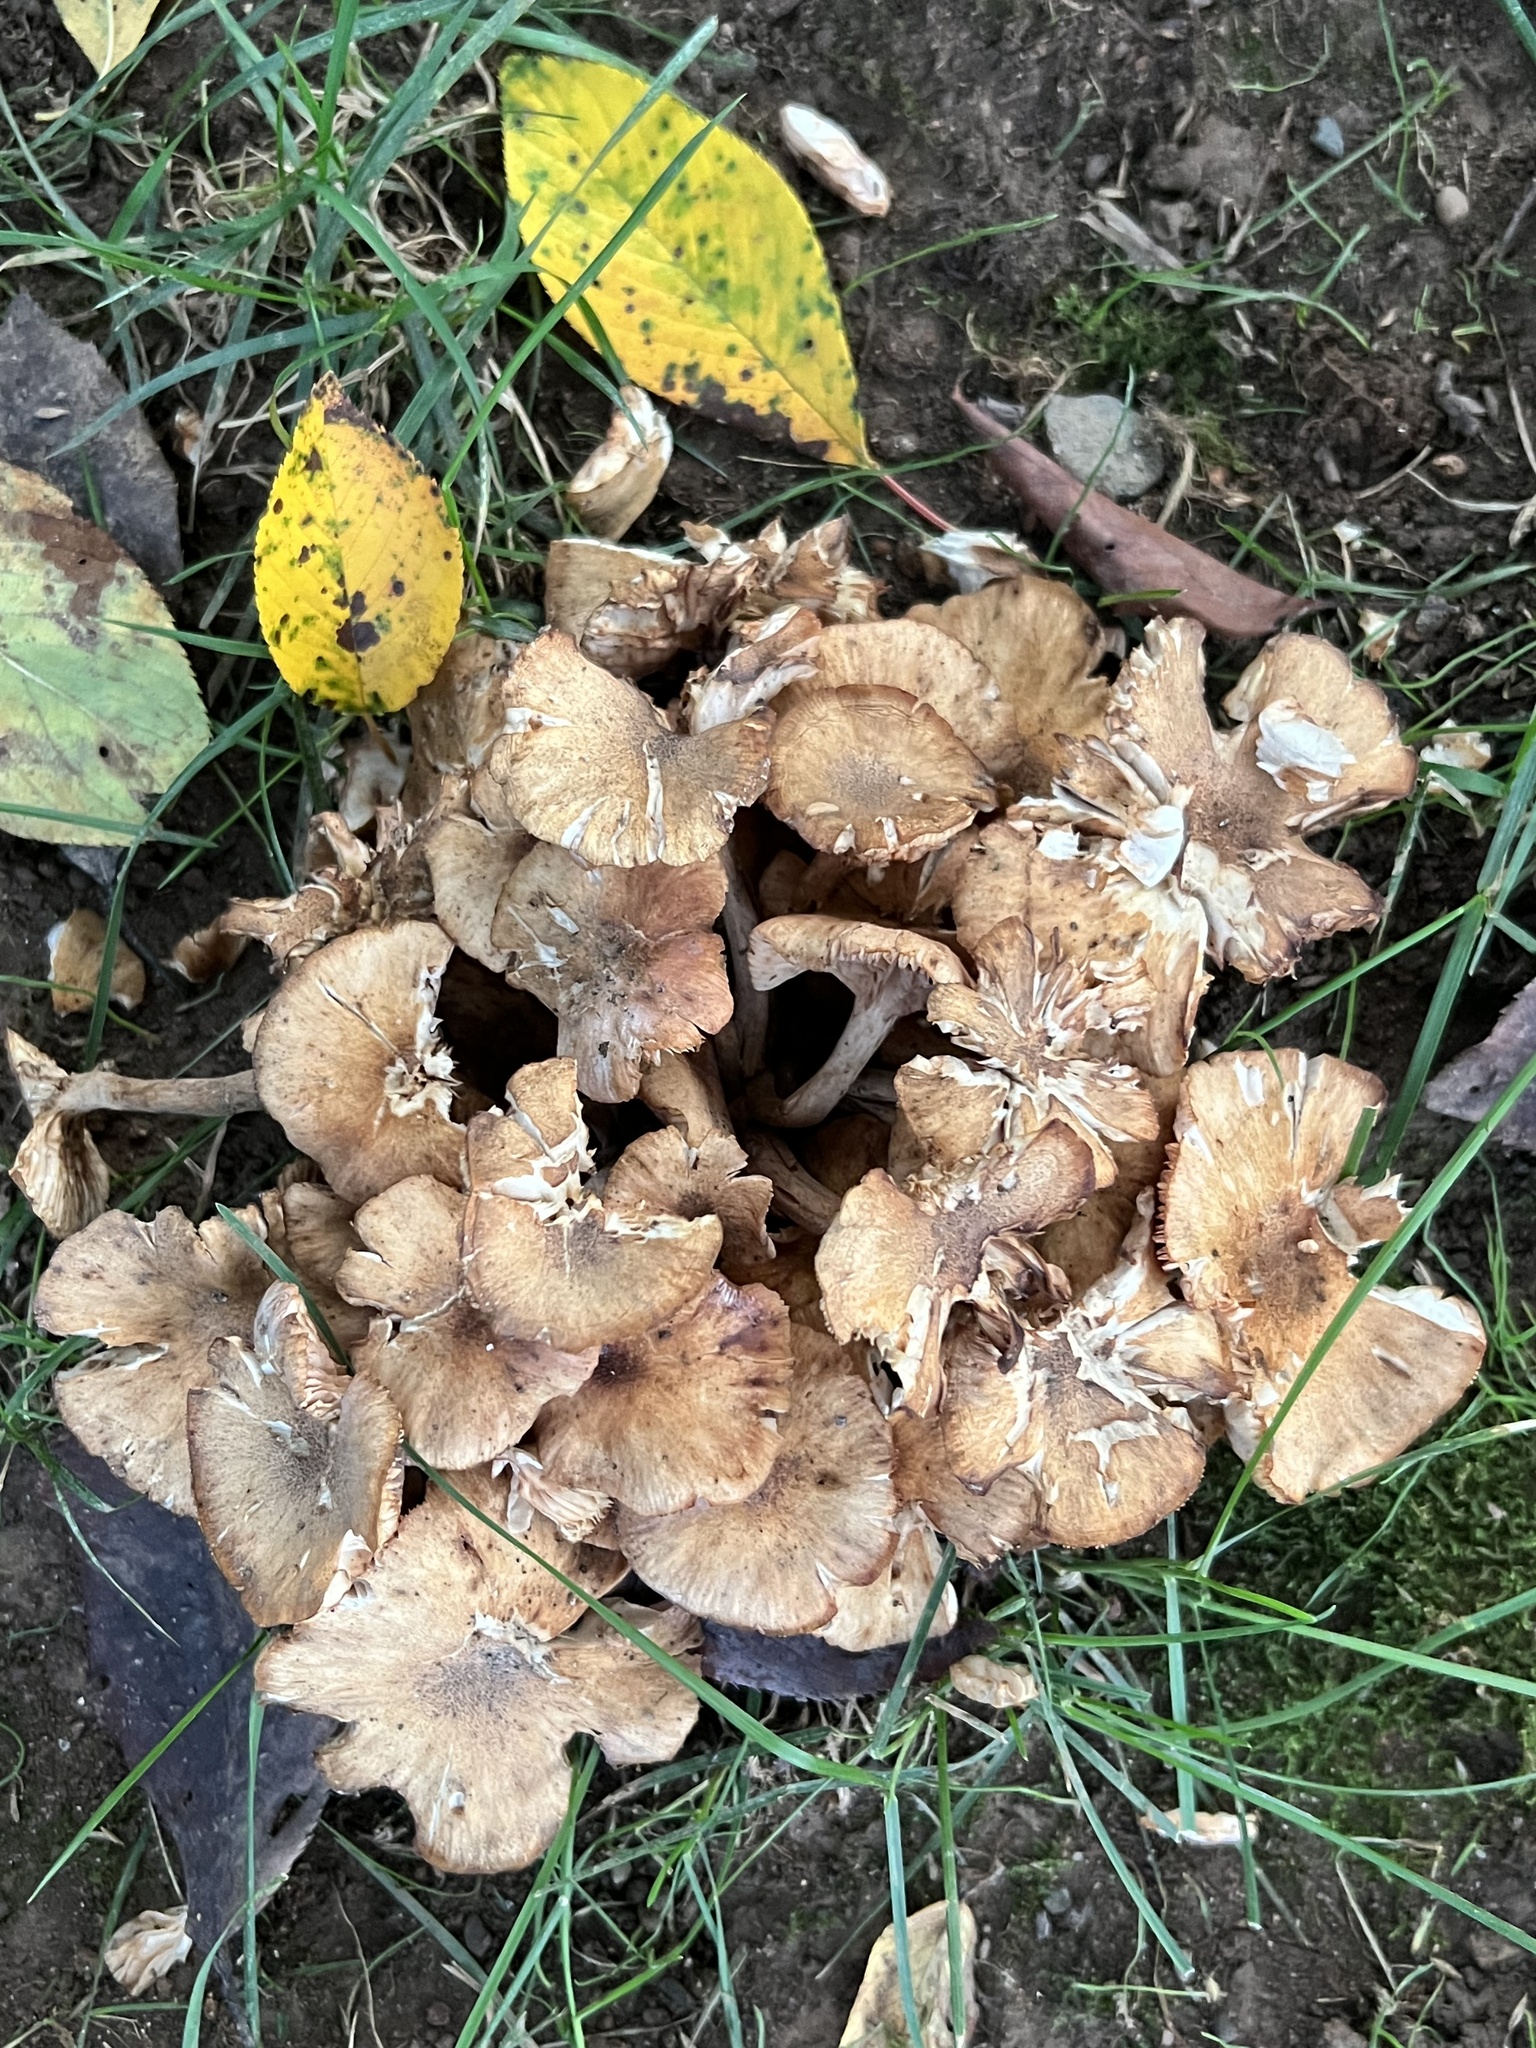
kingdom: Fungi
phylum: Basidiomycota
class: Agaricomycetes
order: Agaricales
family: Physalacriaceae
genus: Desarmillaria
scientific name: Desarmillaria caespitosa
